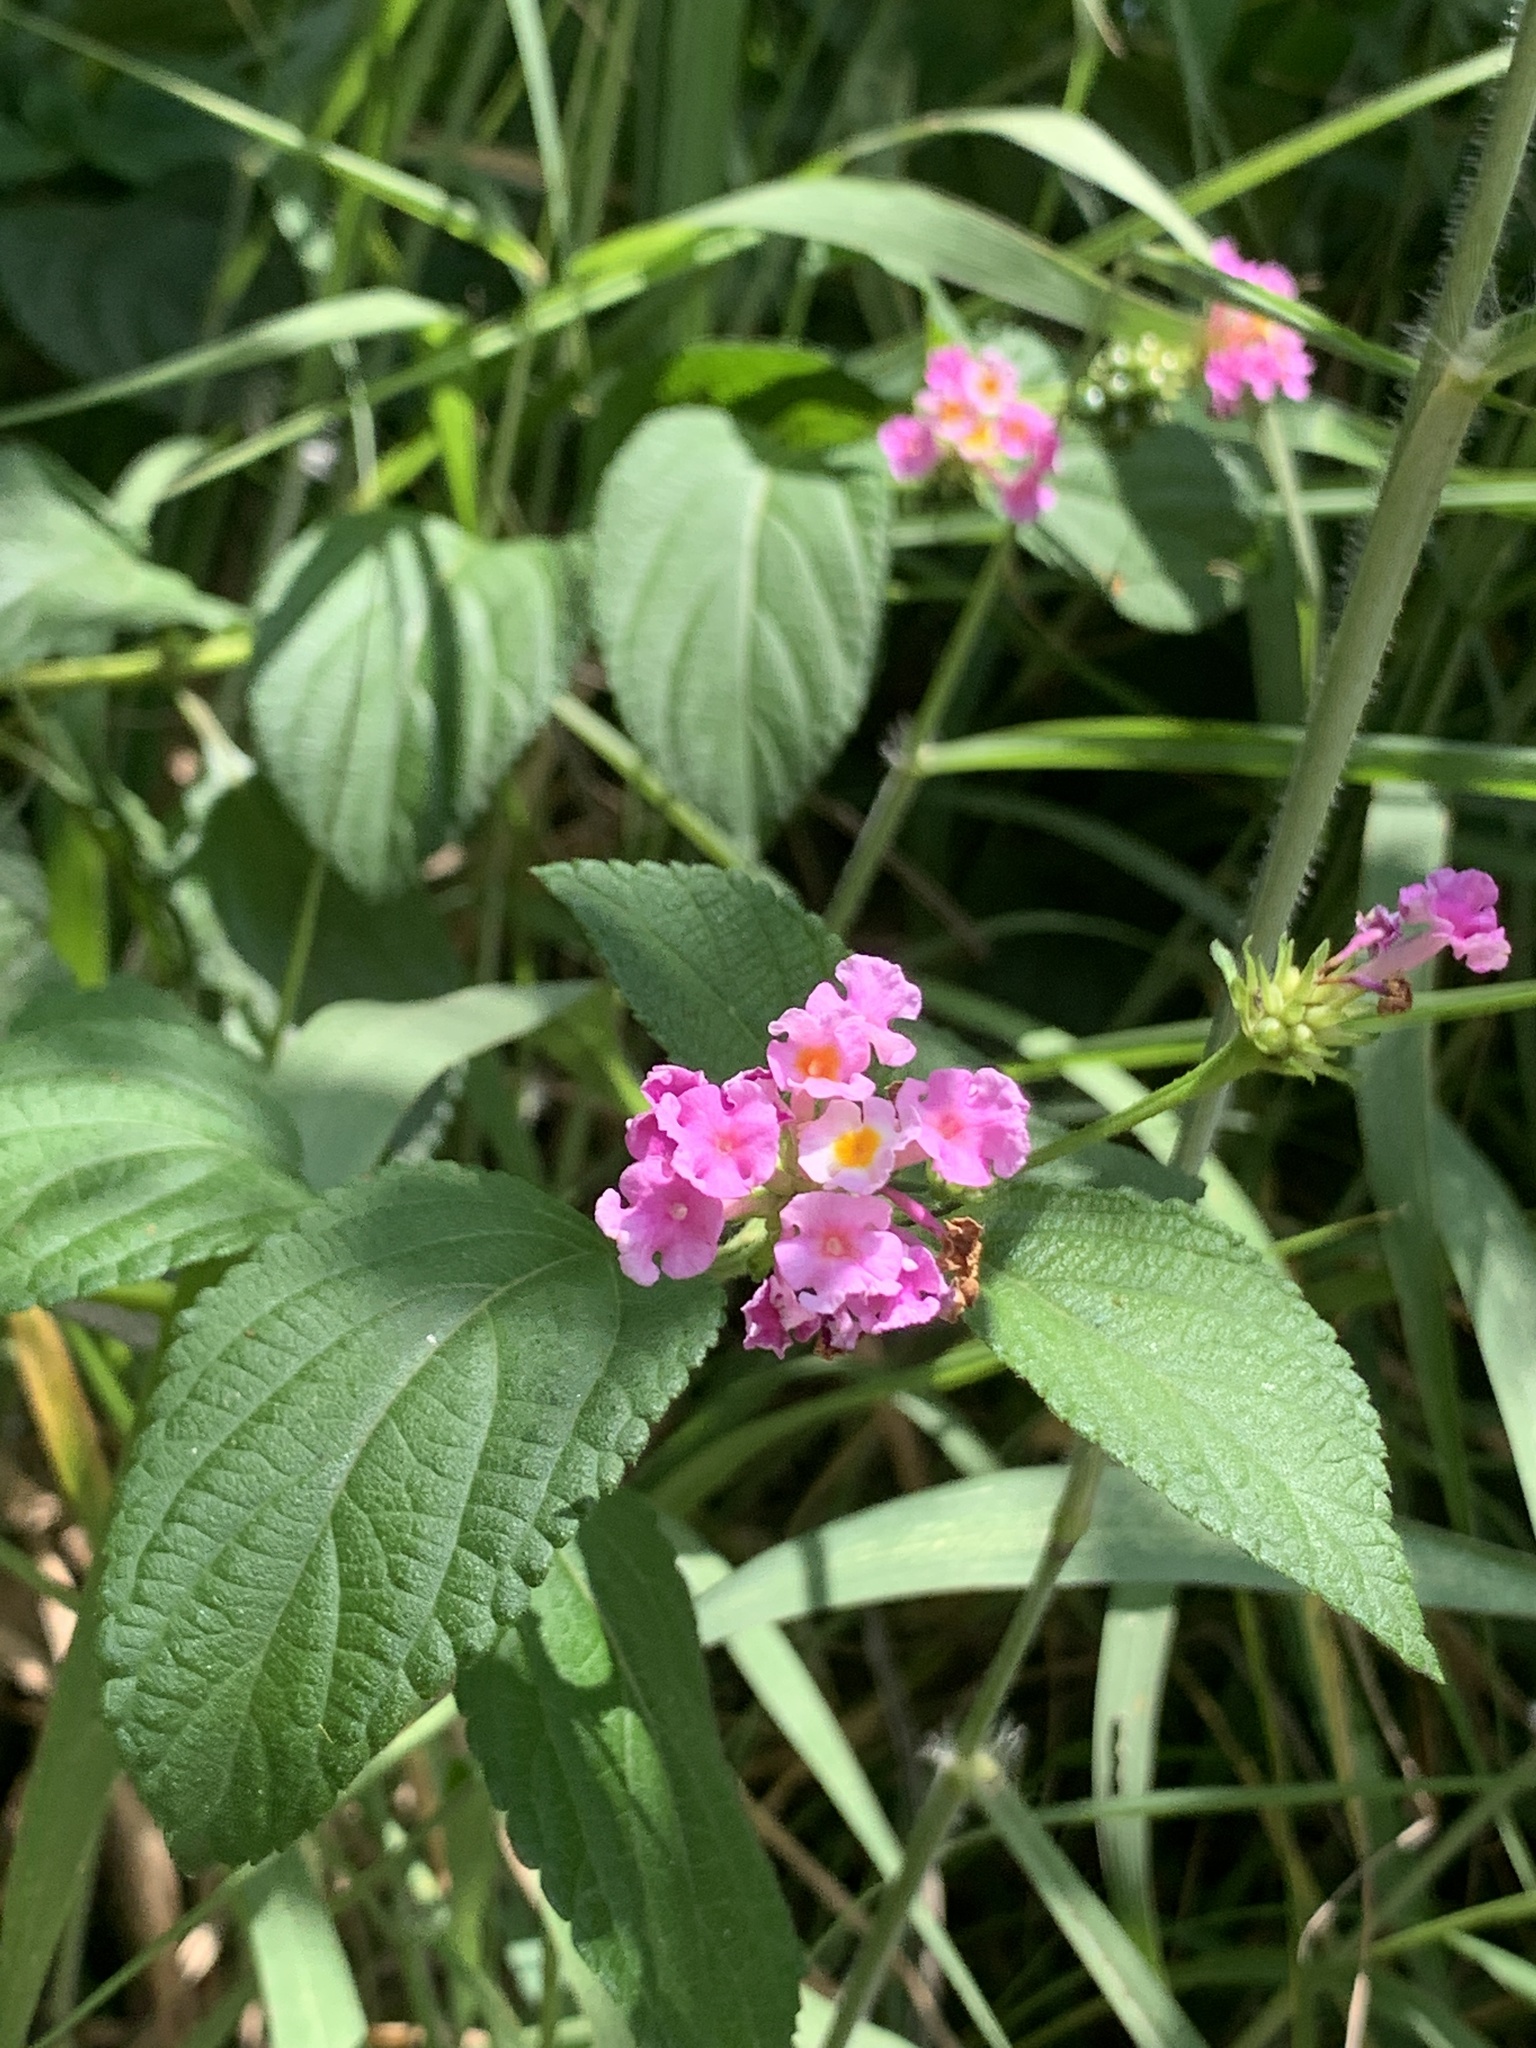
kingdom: Plantae
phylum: Tracheophyta
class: Magnoliopsida
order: Lamiales
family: Verbenaceae
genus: Lantana
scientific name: Lantana camara
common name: Lantana
